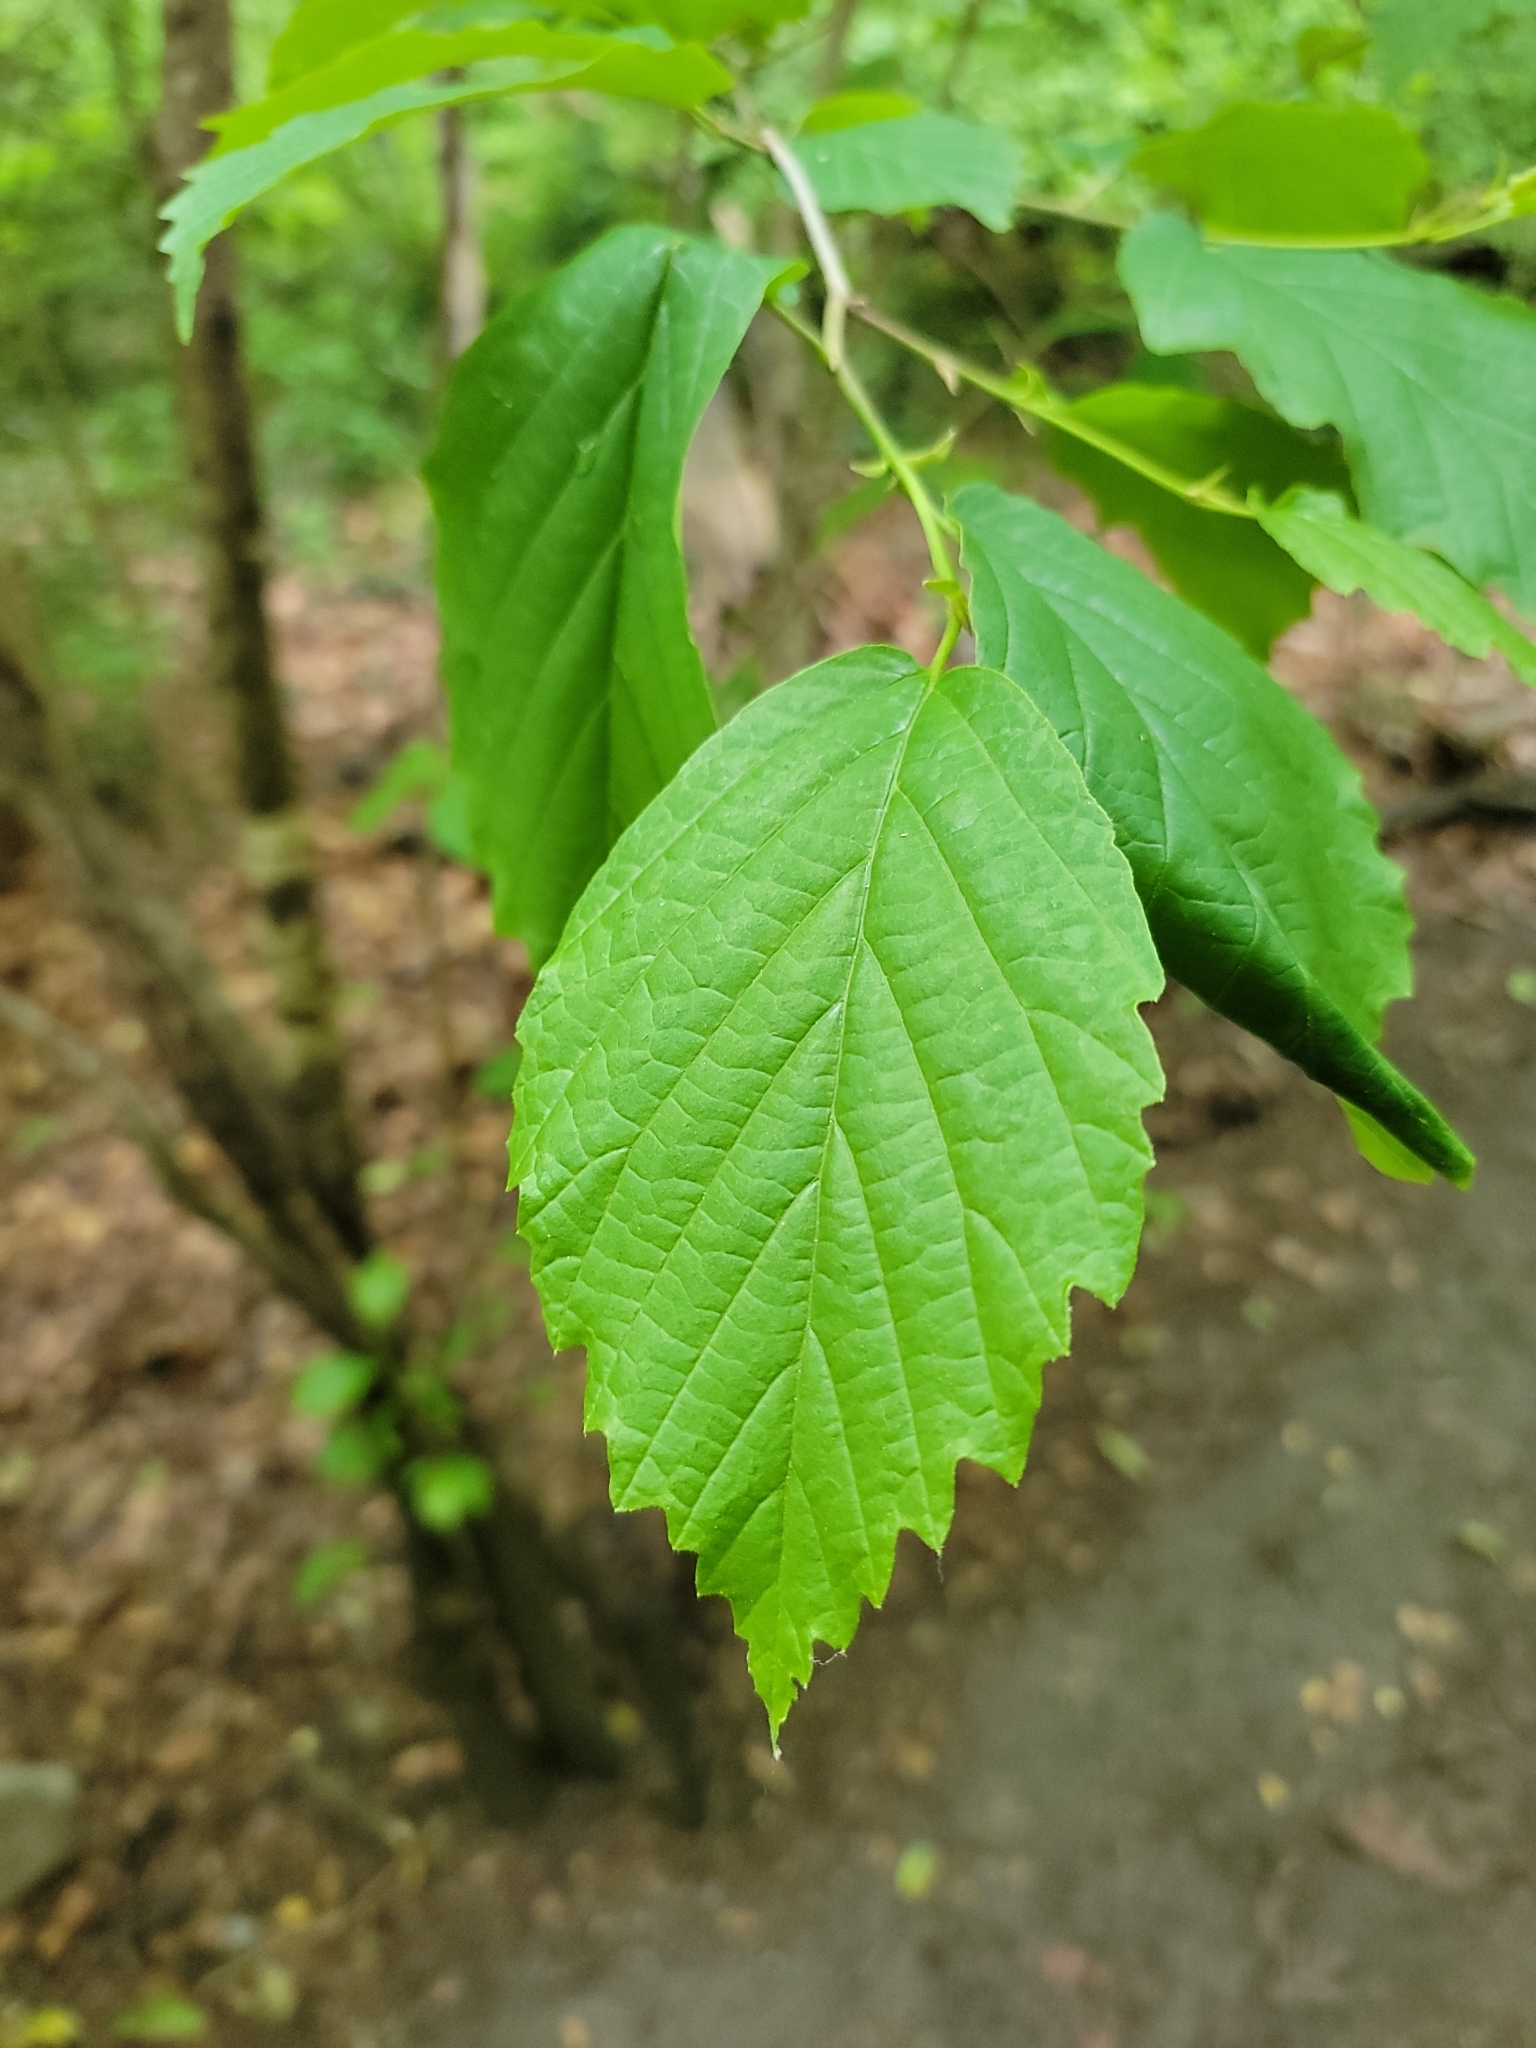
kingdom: Plantae
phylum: Tracheophyta
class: Magnoliopsida
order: Saxifragales
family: Hamamelidaceae
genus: Hamamelis
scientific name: Hamamelis virginiana
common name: Witch-hazel
